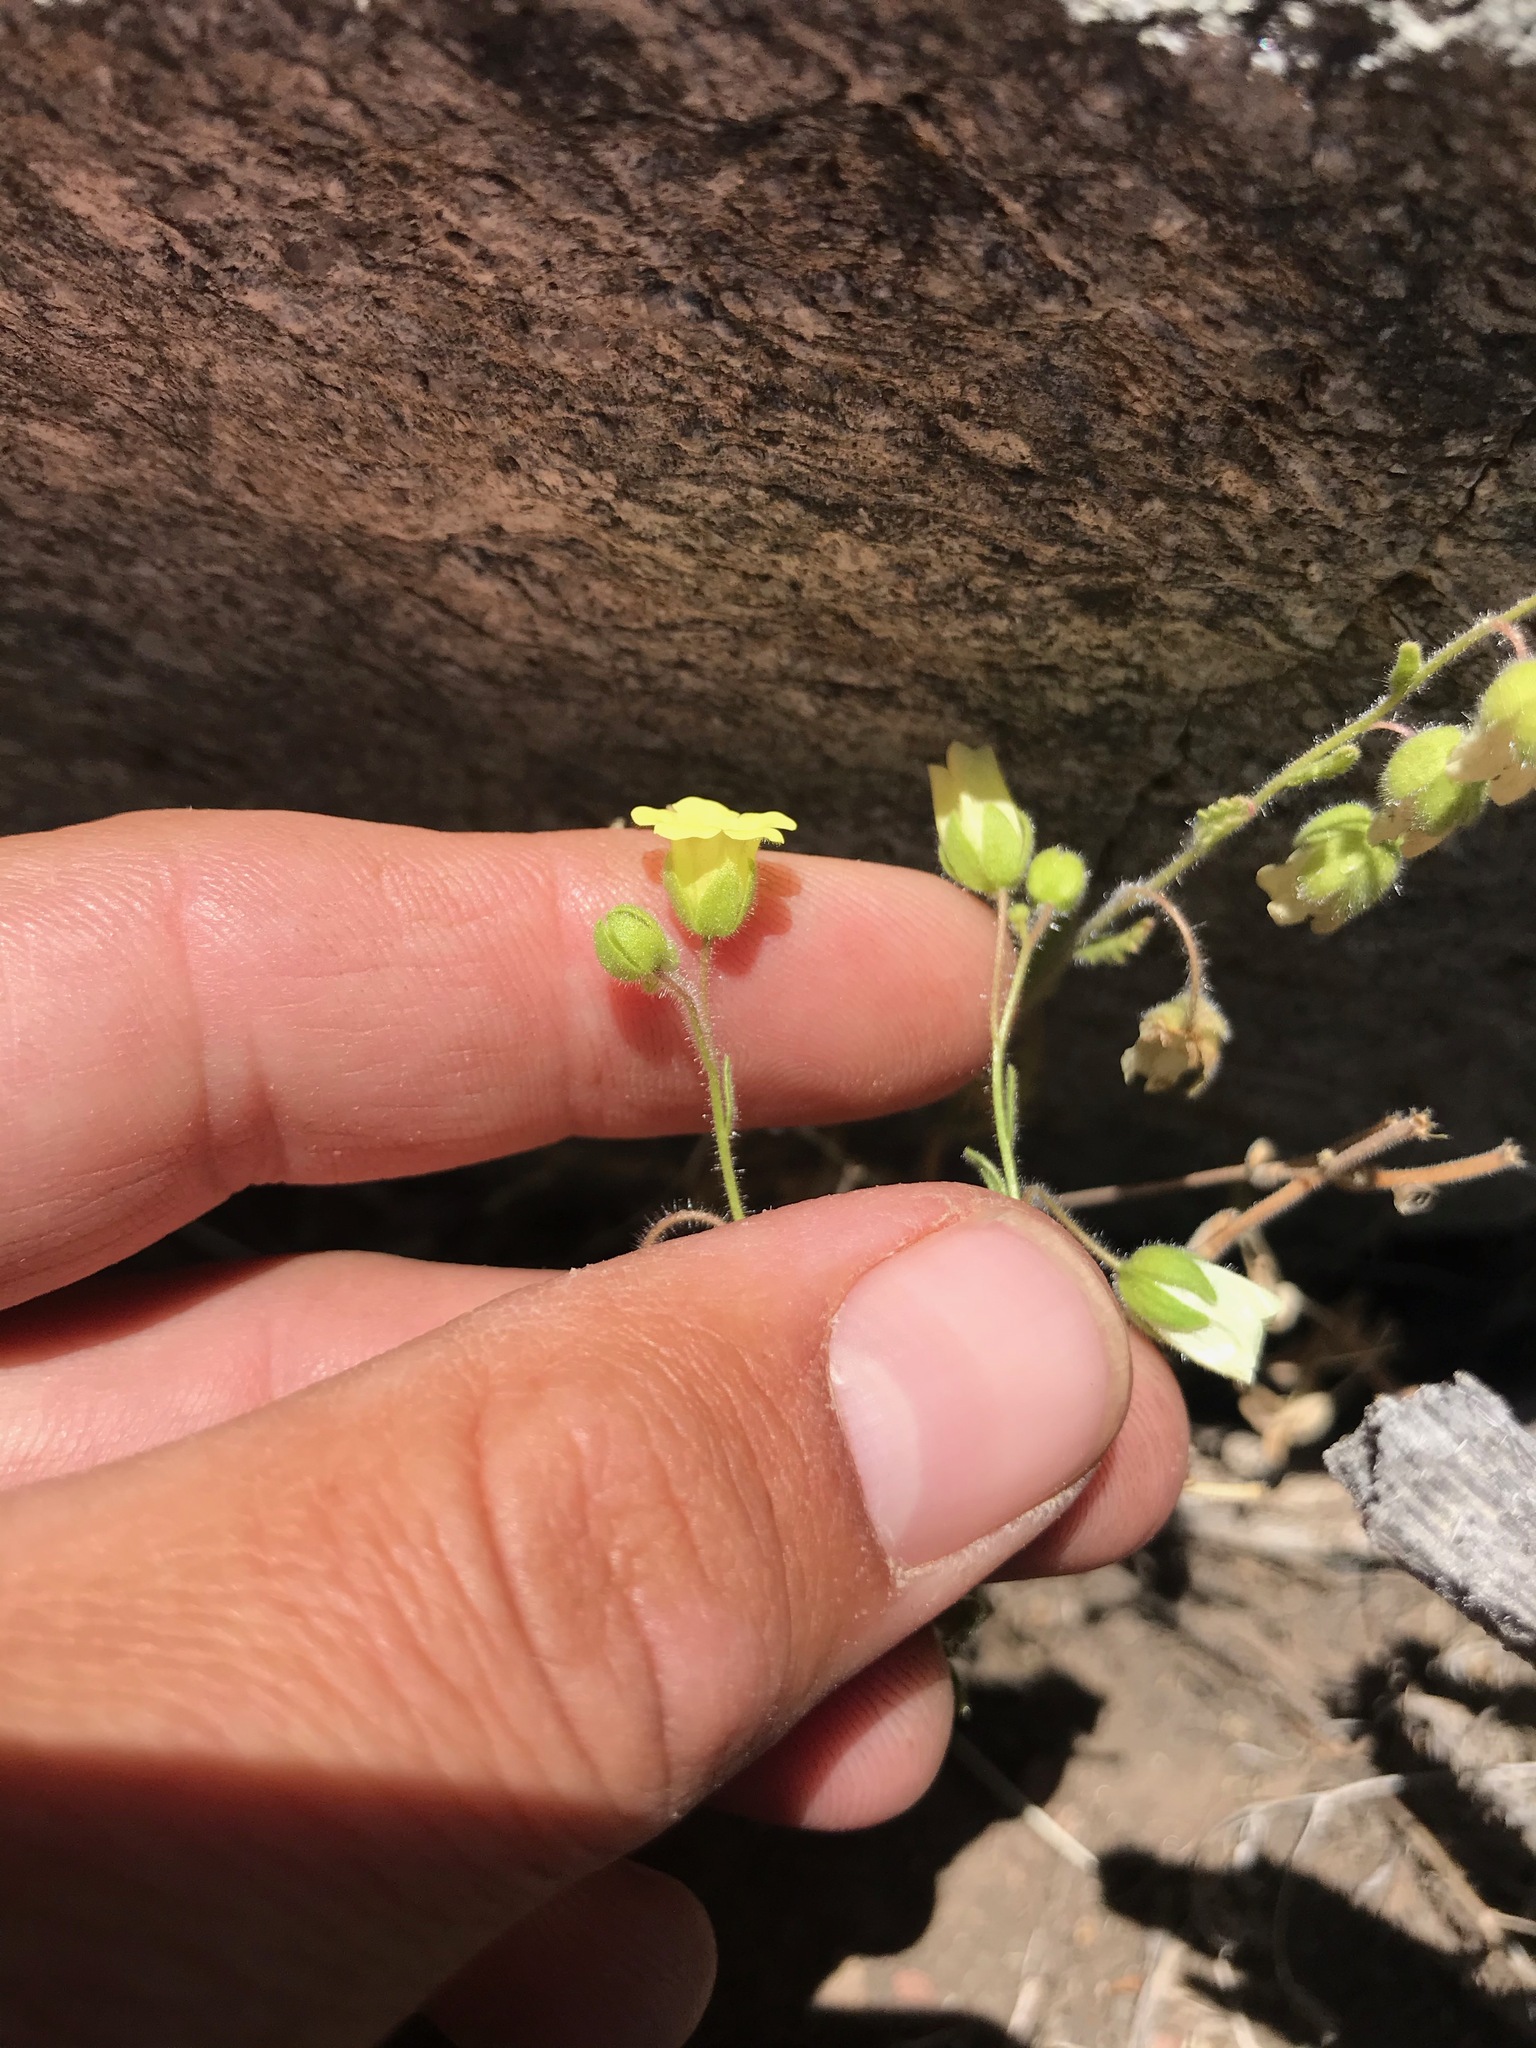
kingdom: Plantae
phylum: Tracheophyta
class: Magnoliopsida
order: Boraginales
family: Hydrophyllaceae
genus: Emmenanthe
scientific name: Emmenanthe penduliflora
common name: Whispering-bells
